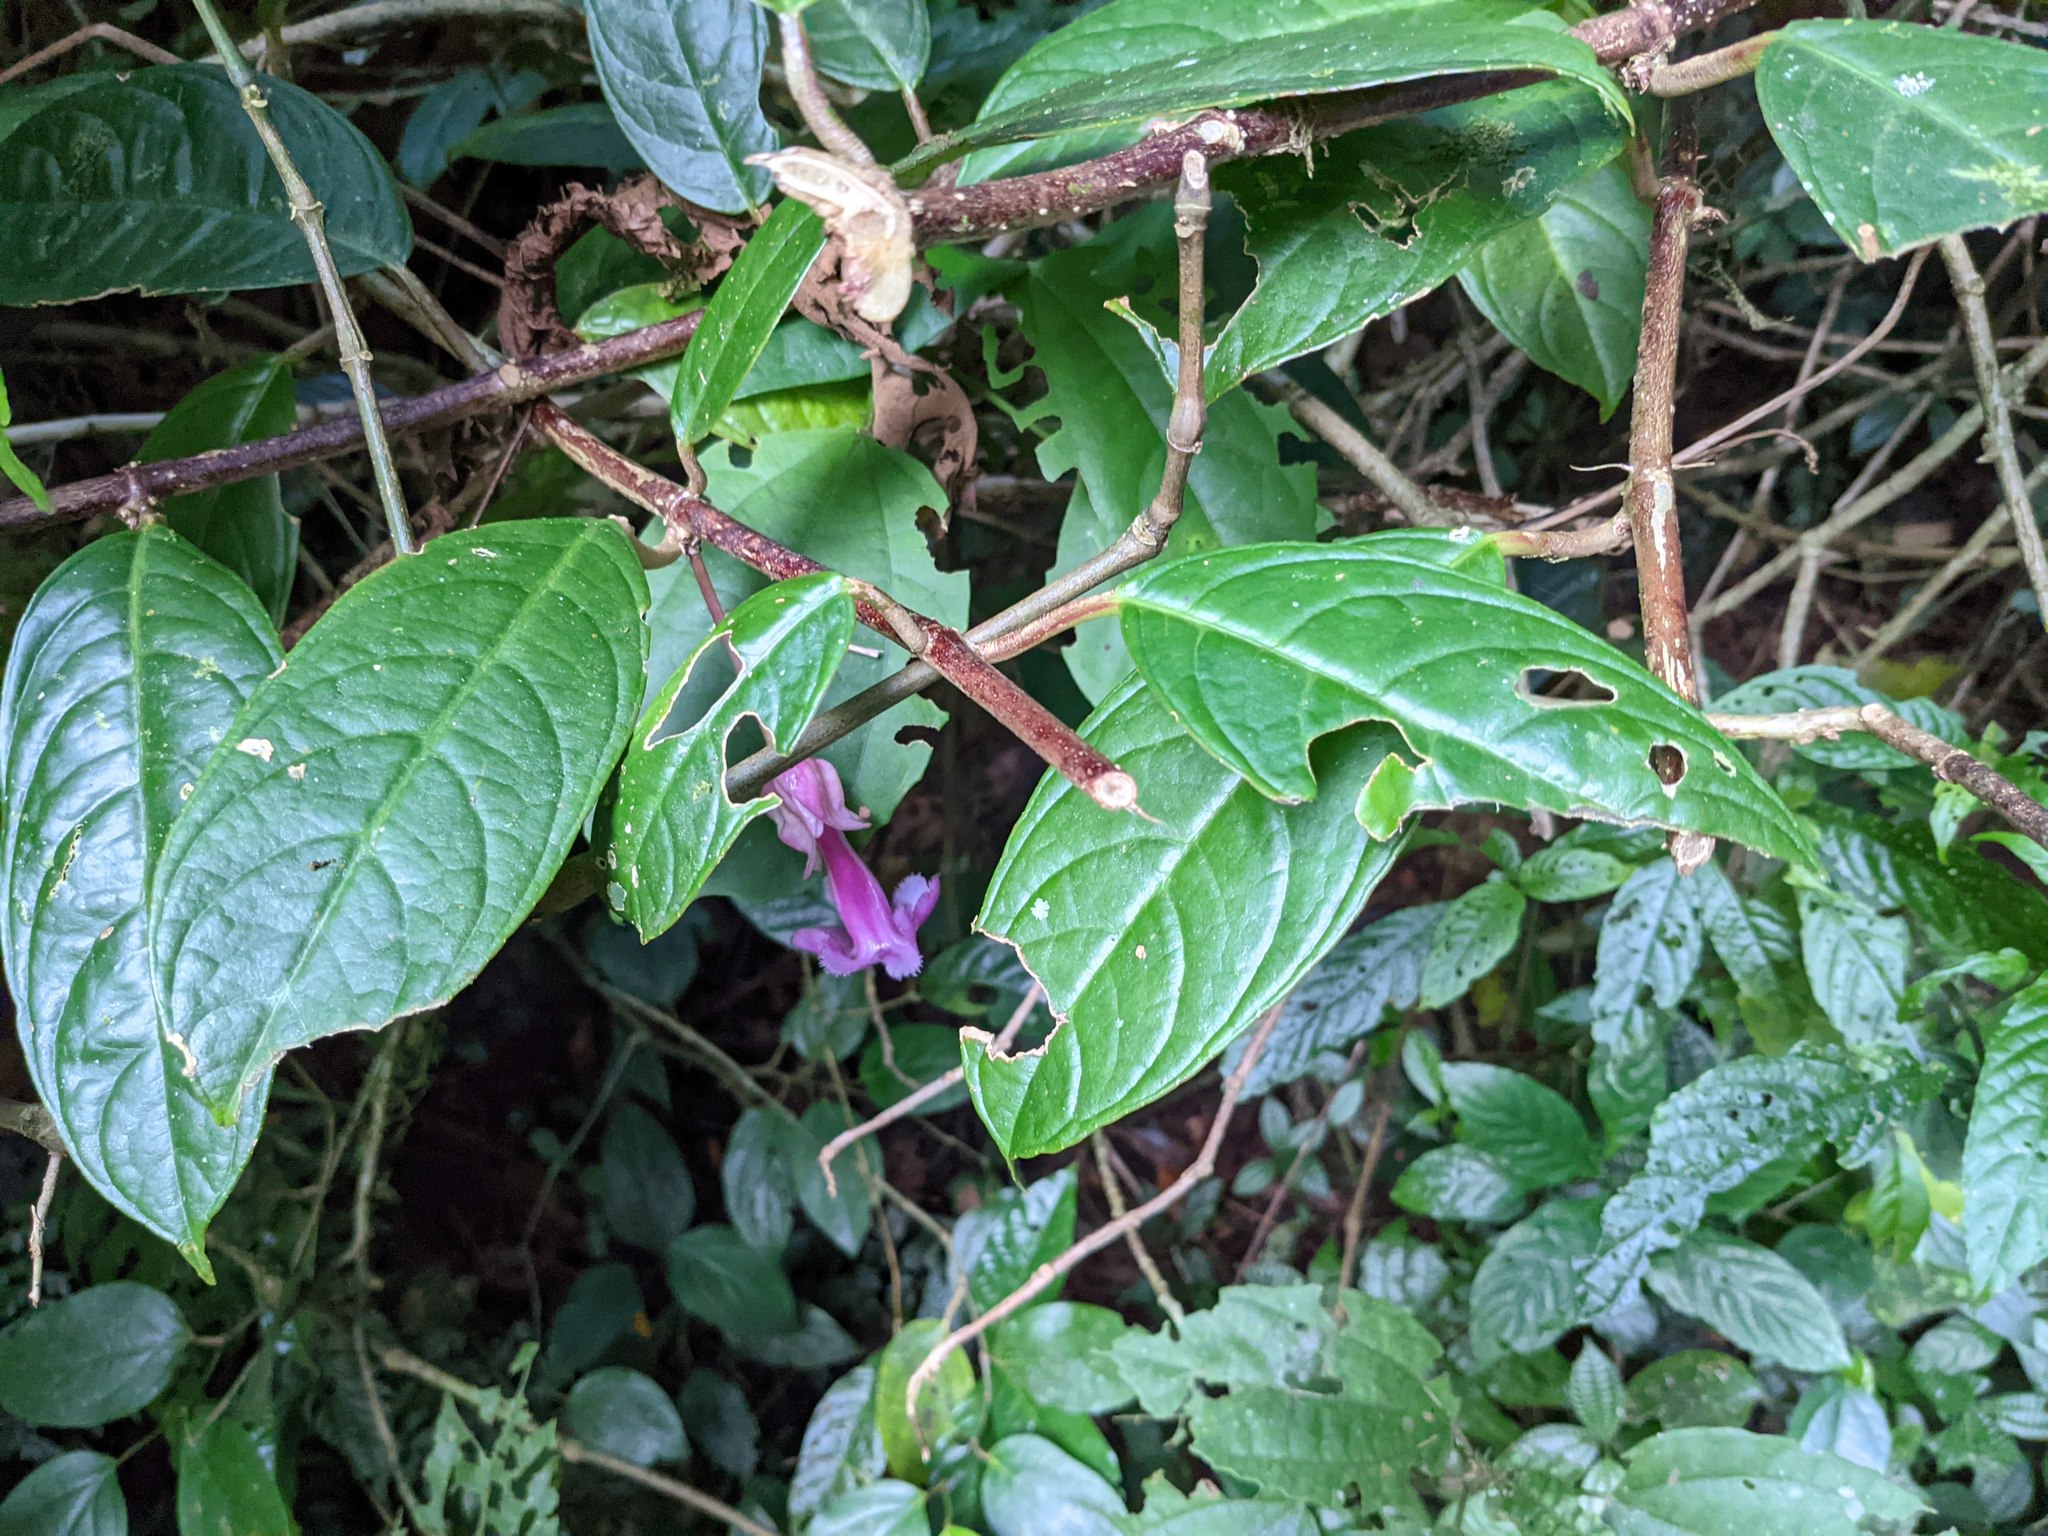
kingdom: Plantae
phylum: Tracheophyta
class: Magnoliopsida
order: Lamiales
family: Gesneriaceae
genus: Drymonia
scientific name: Drymonia conchocalyx
